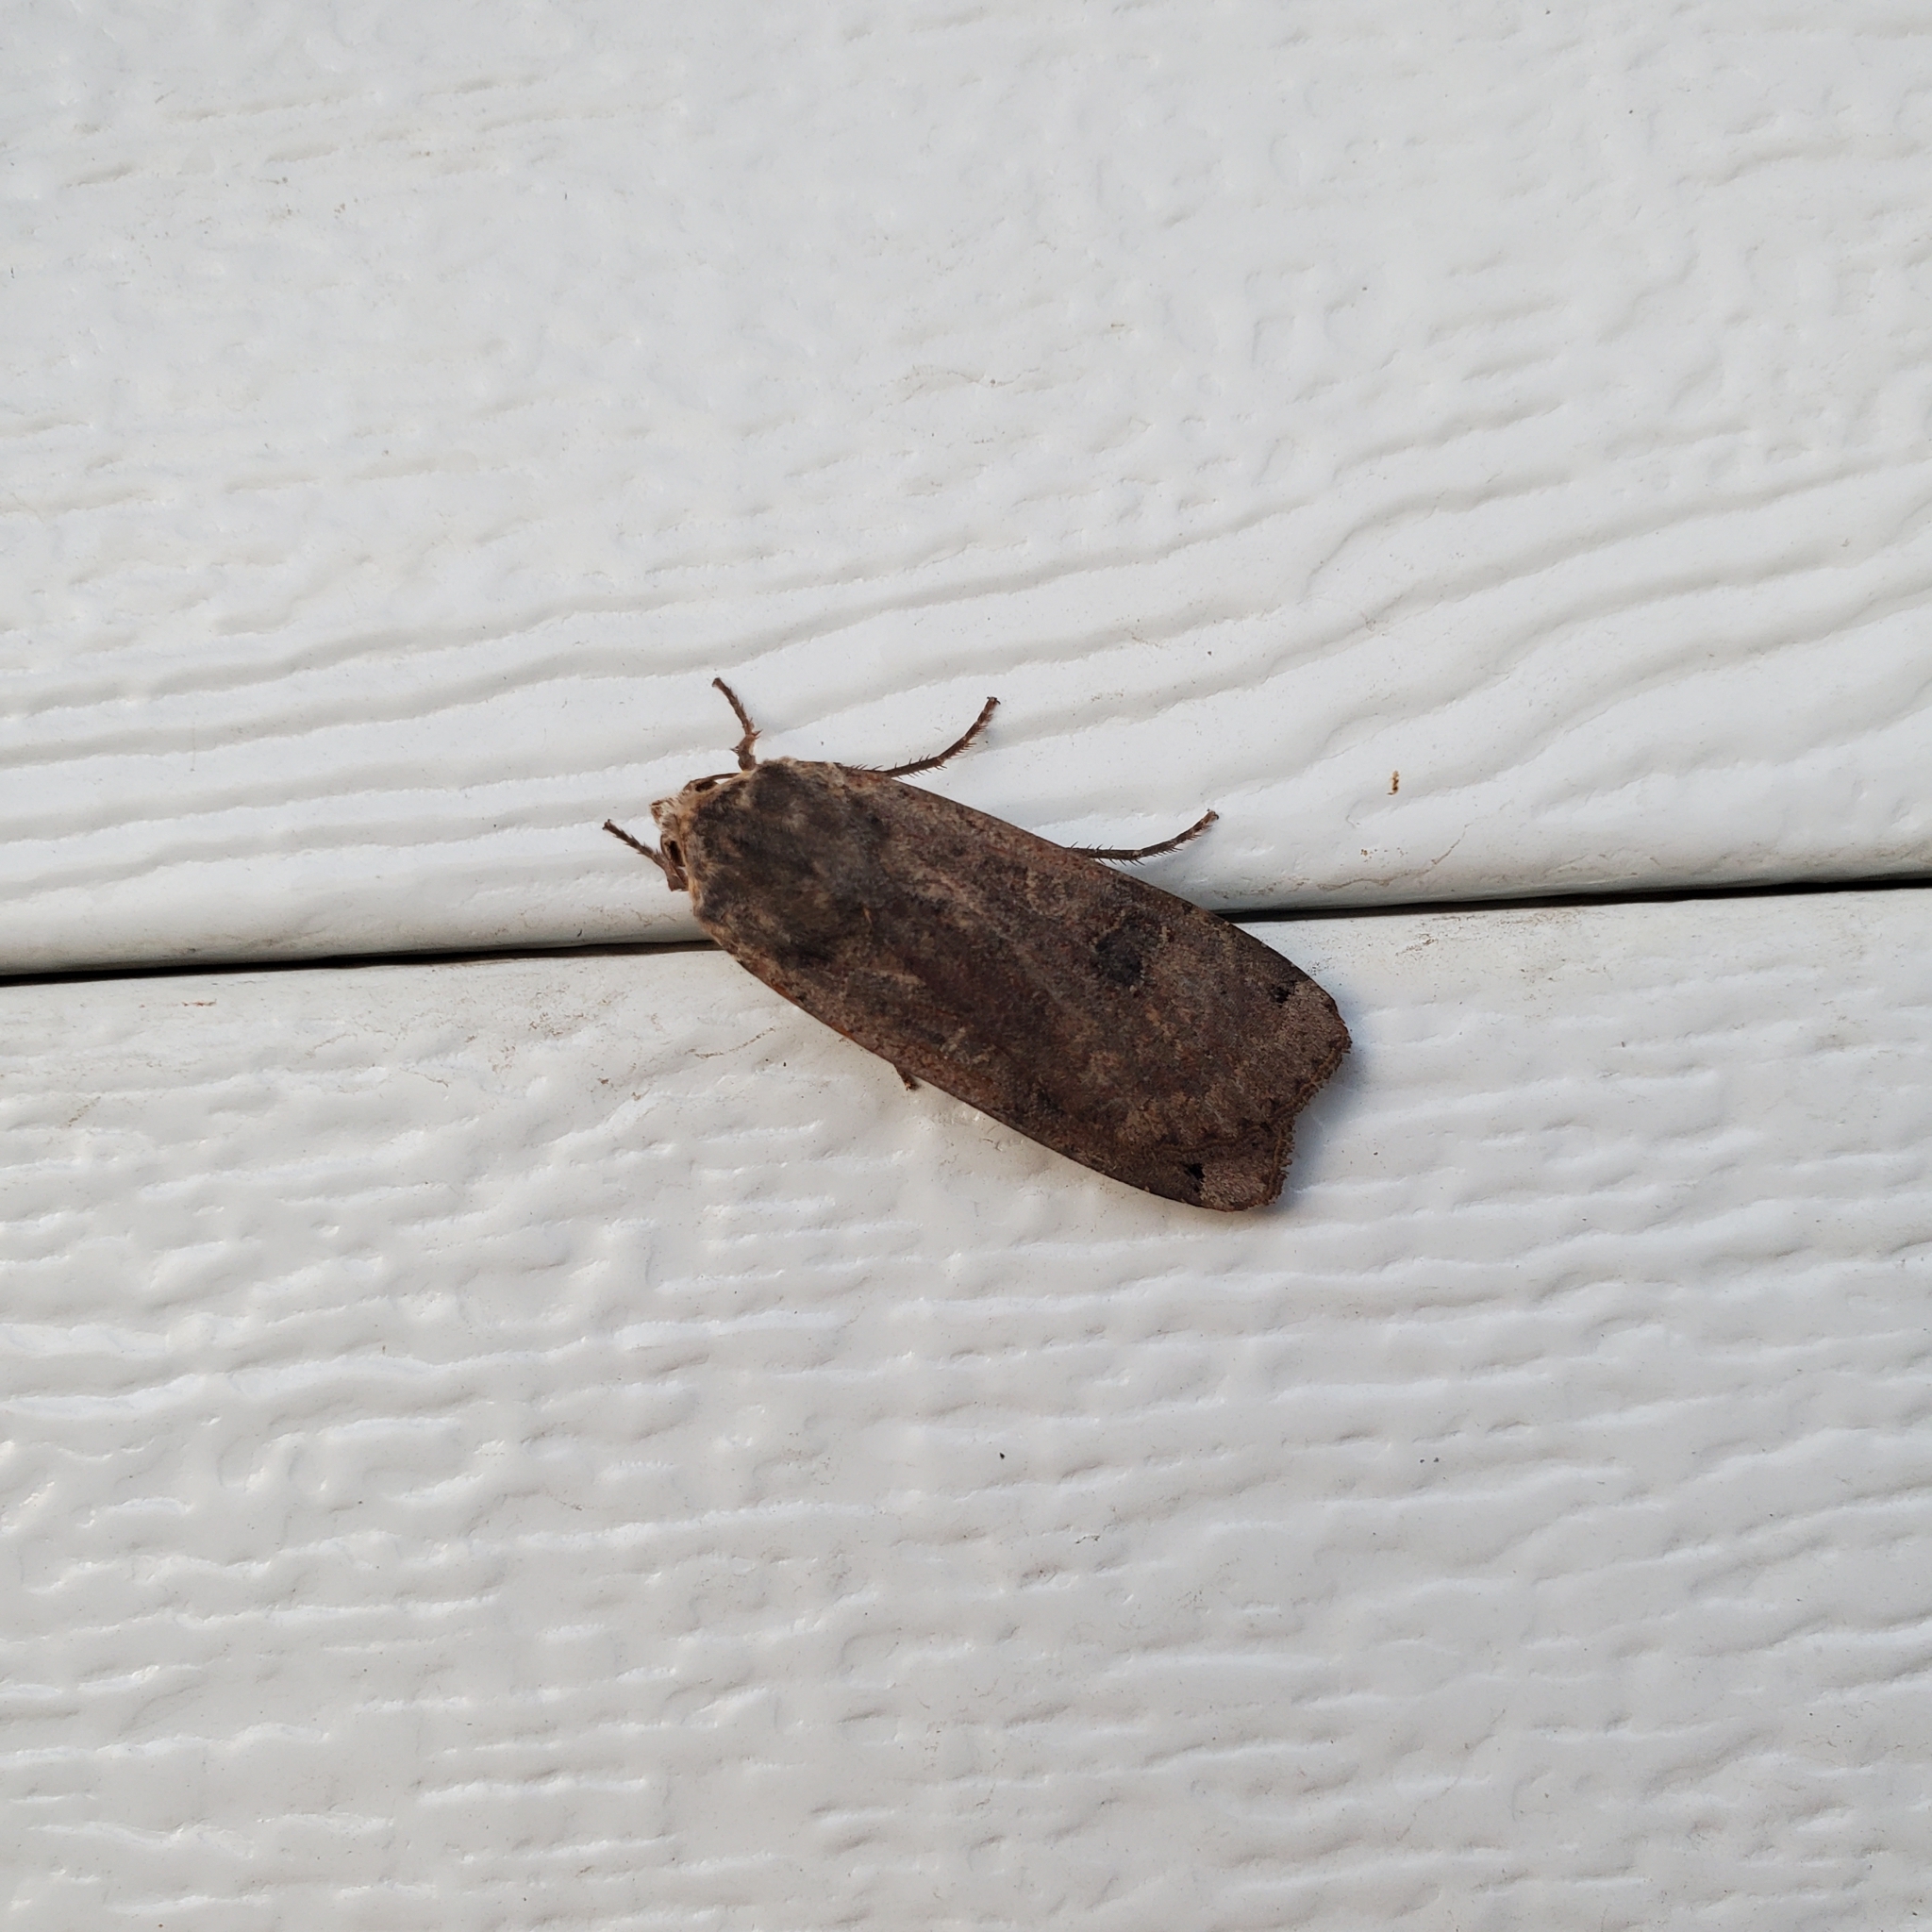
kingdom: Animalia
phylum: Arthropoda
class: Insecta
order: Lepidoptera
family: Noctuidae
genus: Noctua
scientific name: Noctua pronuba
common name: Large yellow underwing
